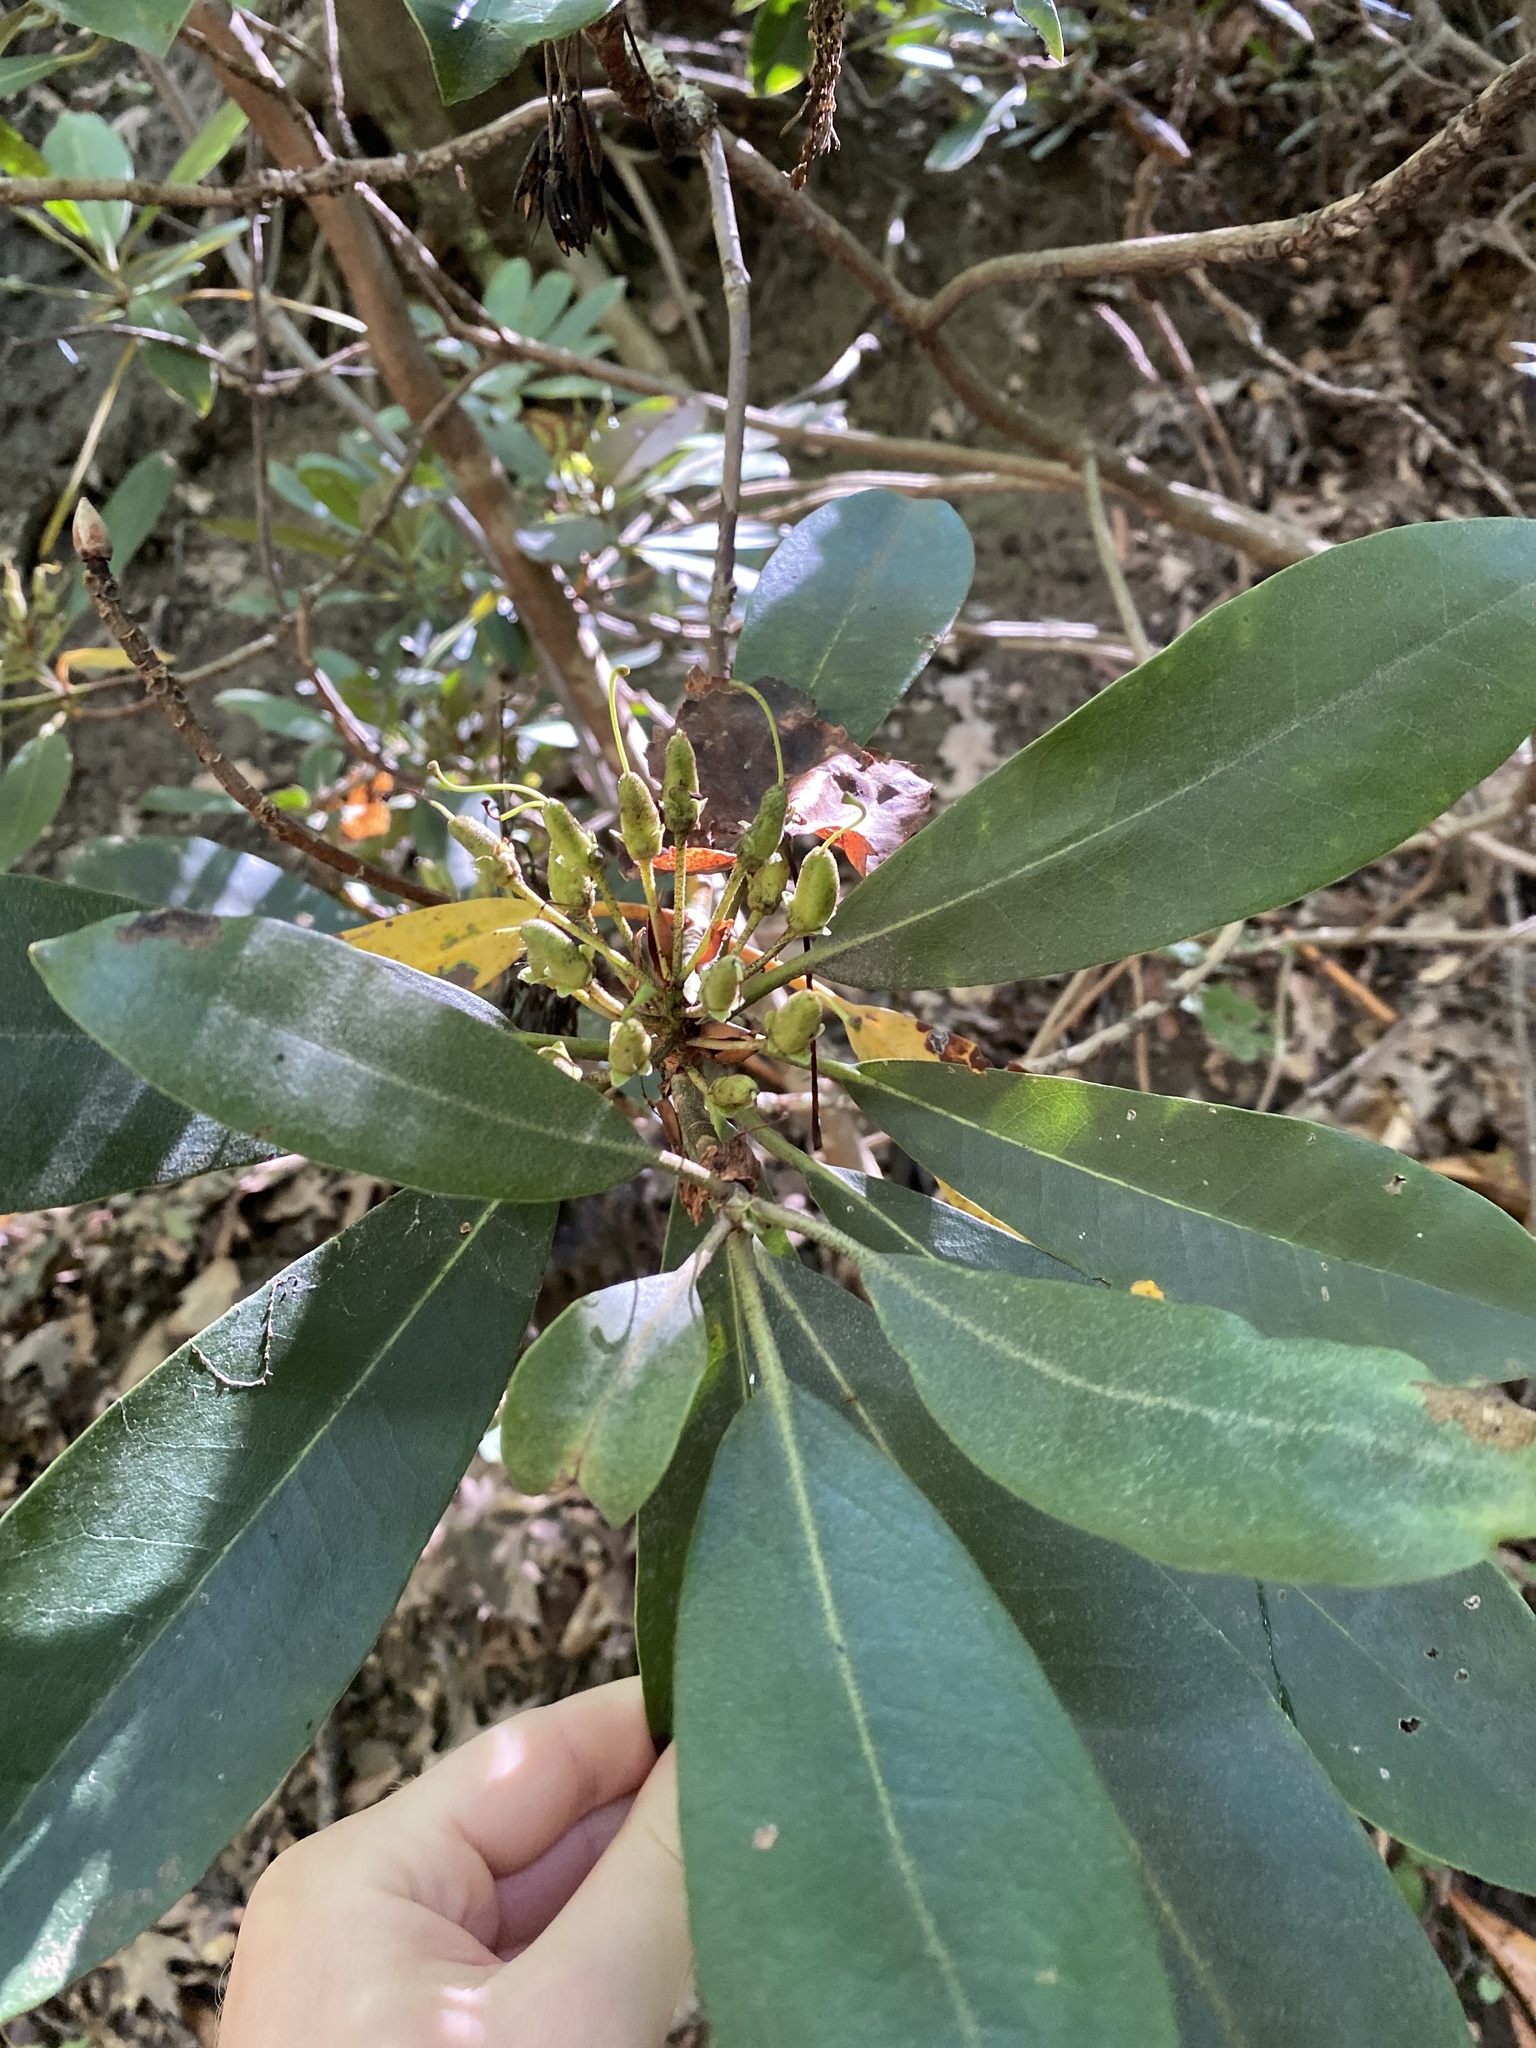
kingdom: Plantae
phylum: Tracheophyta
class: Magnoliopsida
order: Ericales
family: Ericaceae
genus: Rhododendron
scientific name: Rhododendron maximum
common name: Great rhododendron
